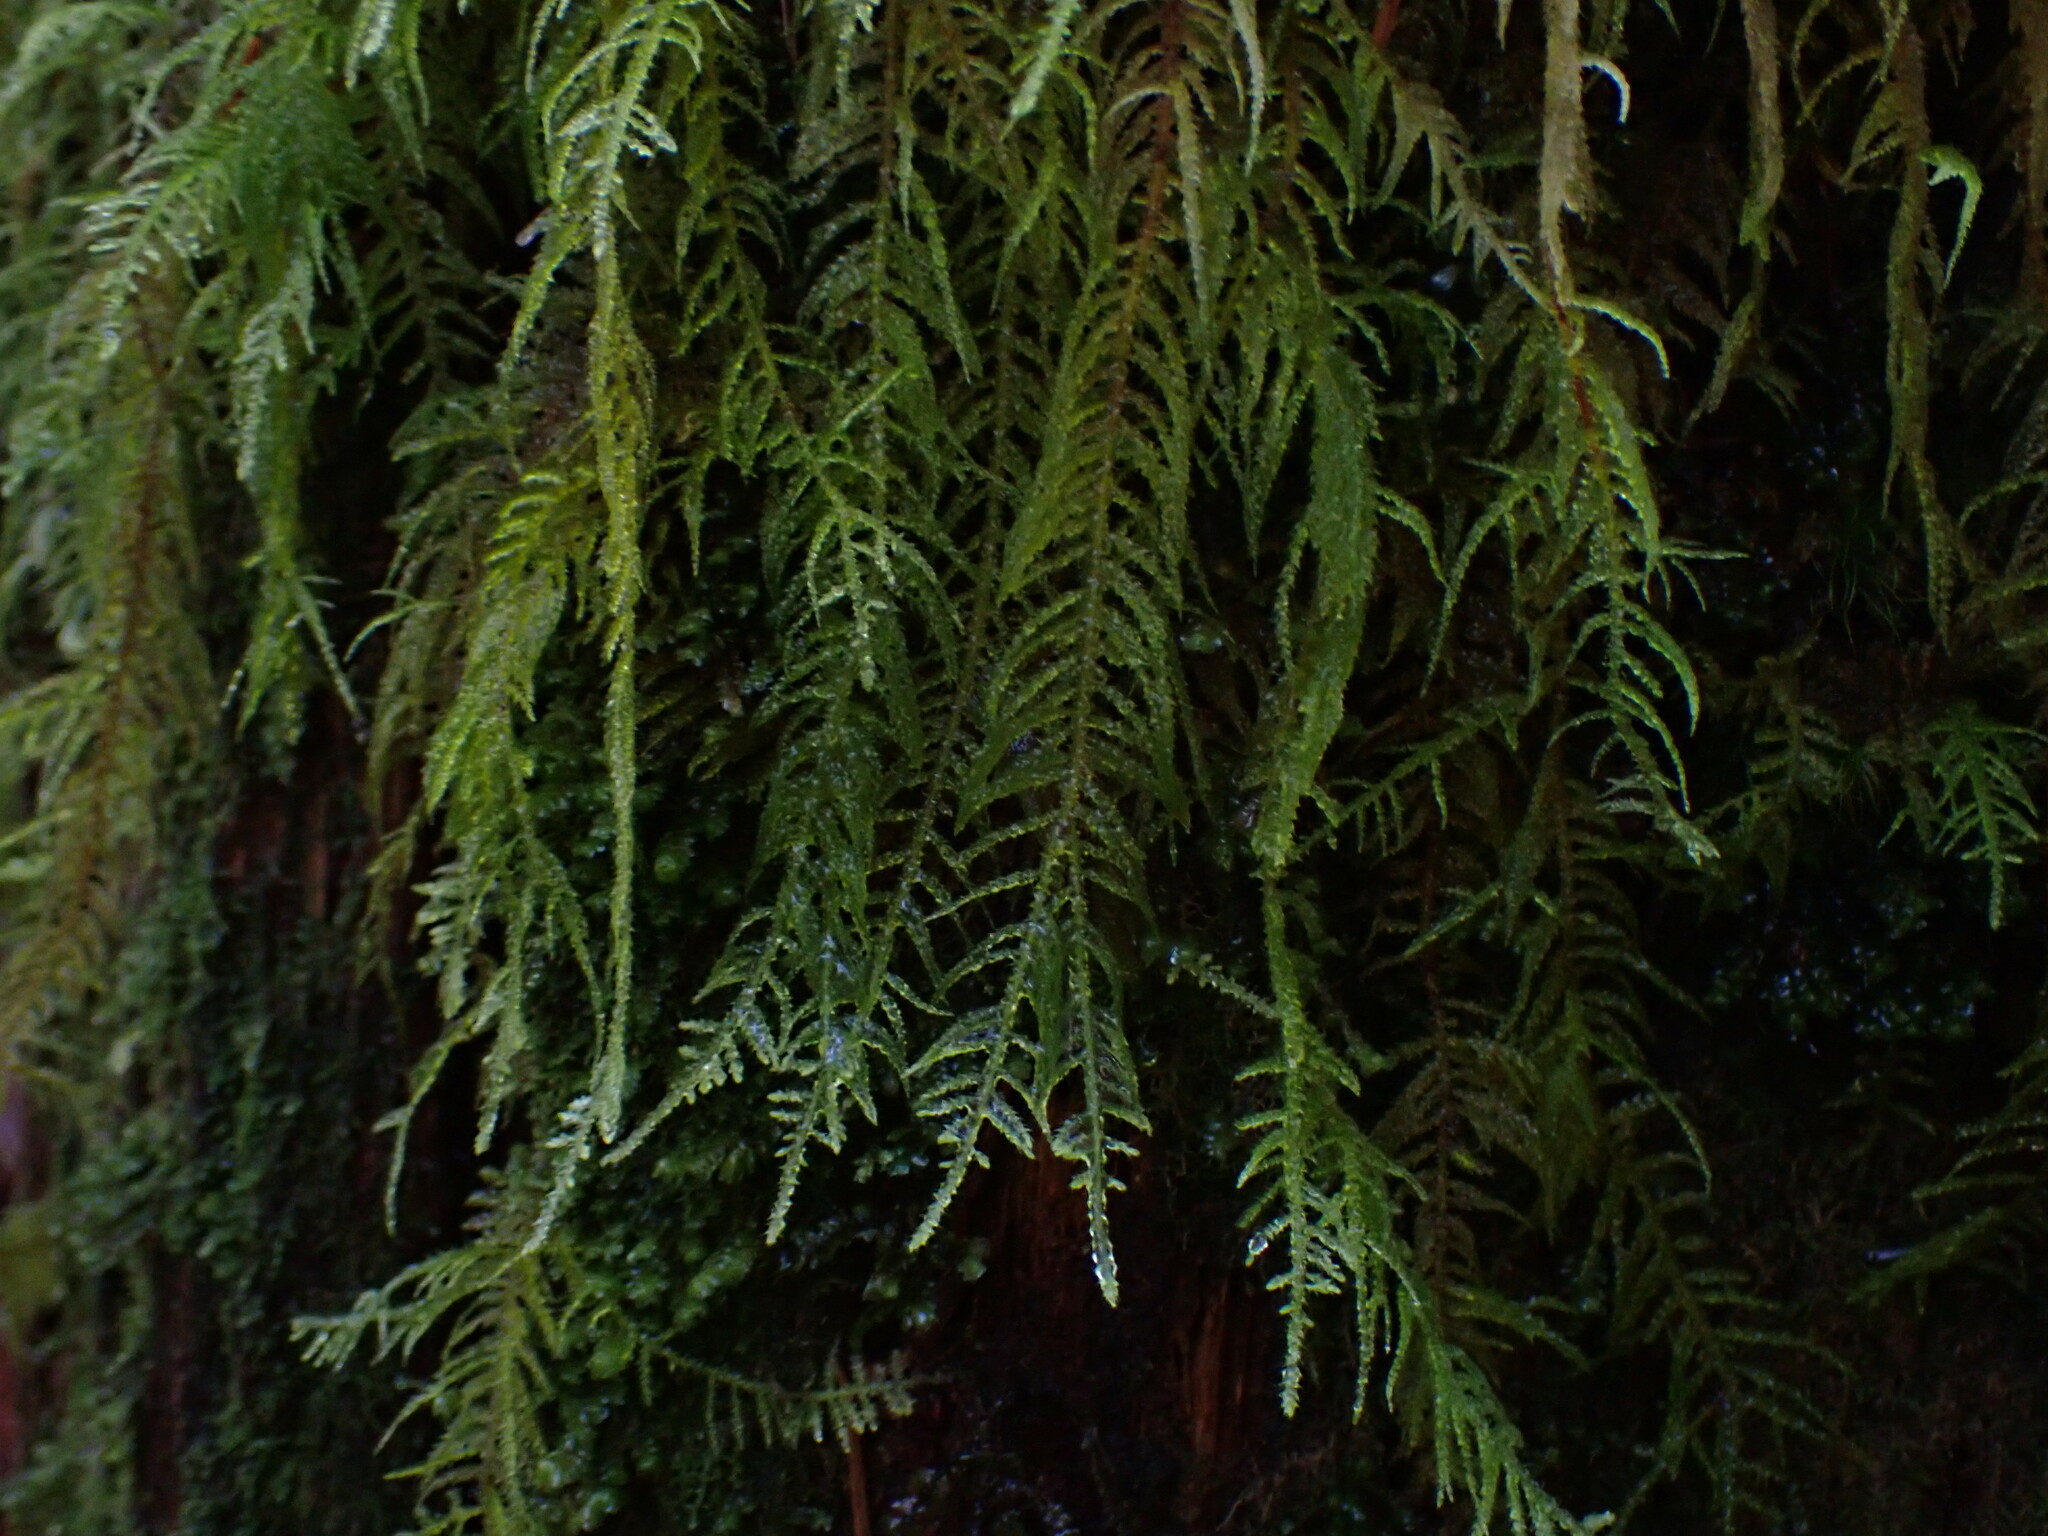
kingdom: Plantae
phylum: Bryophyta
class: Bryopsida
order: Hypnales
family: Brachytheciaceae
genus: Kindbergia
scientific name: Kindbergia oregana
